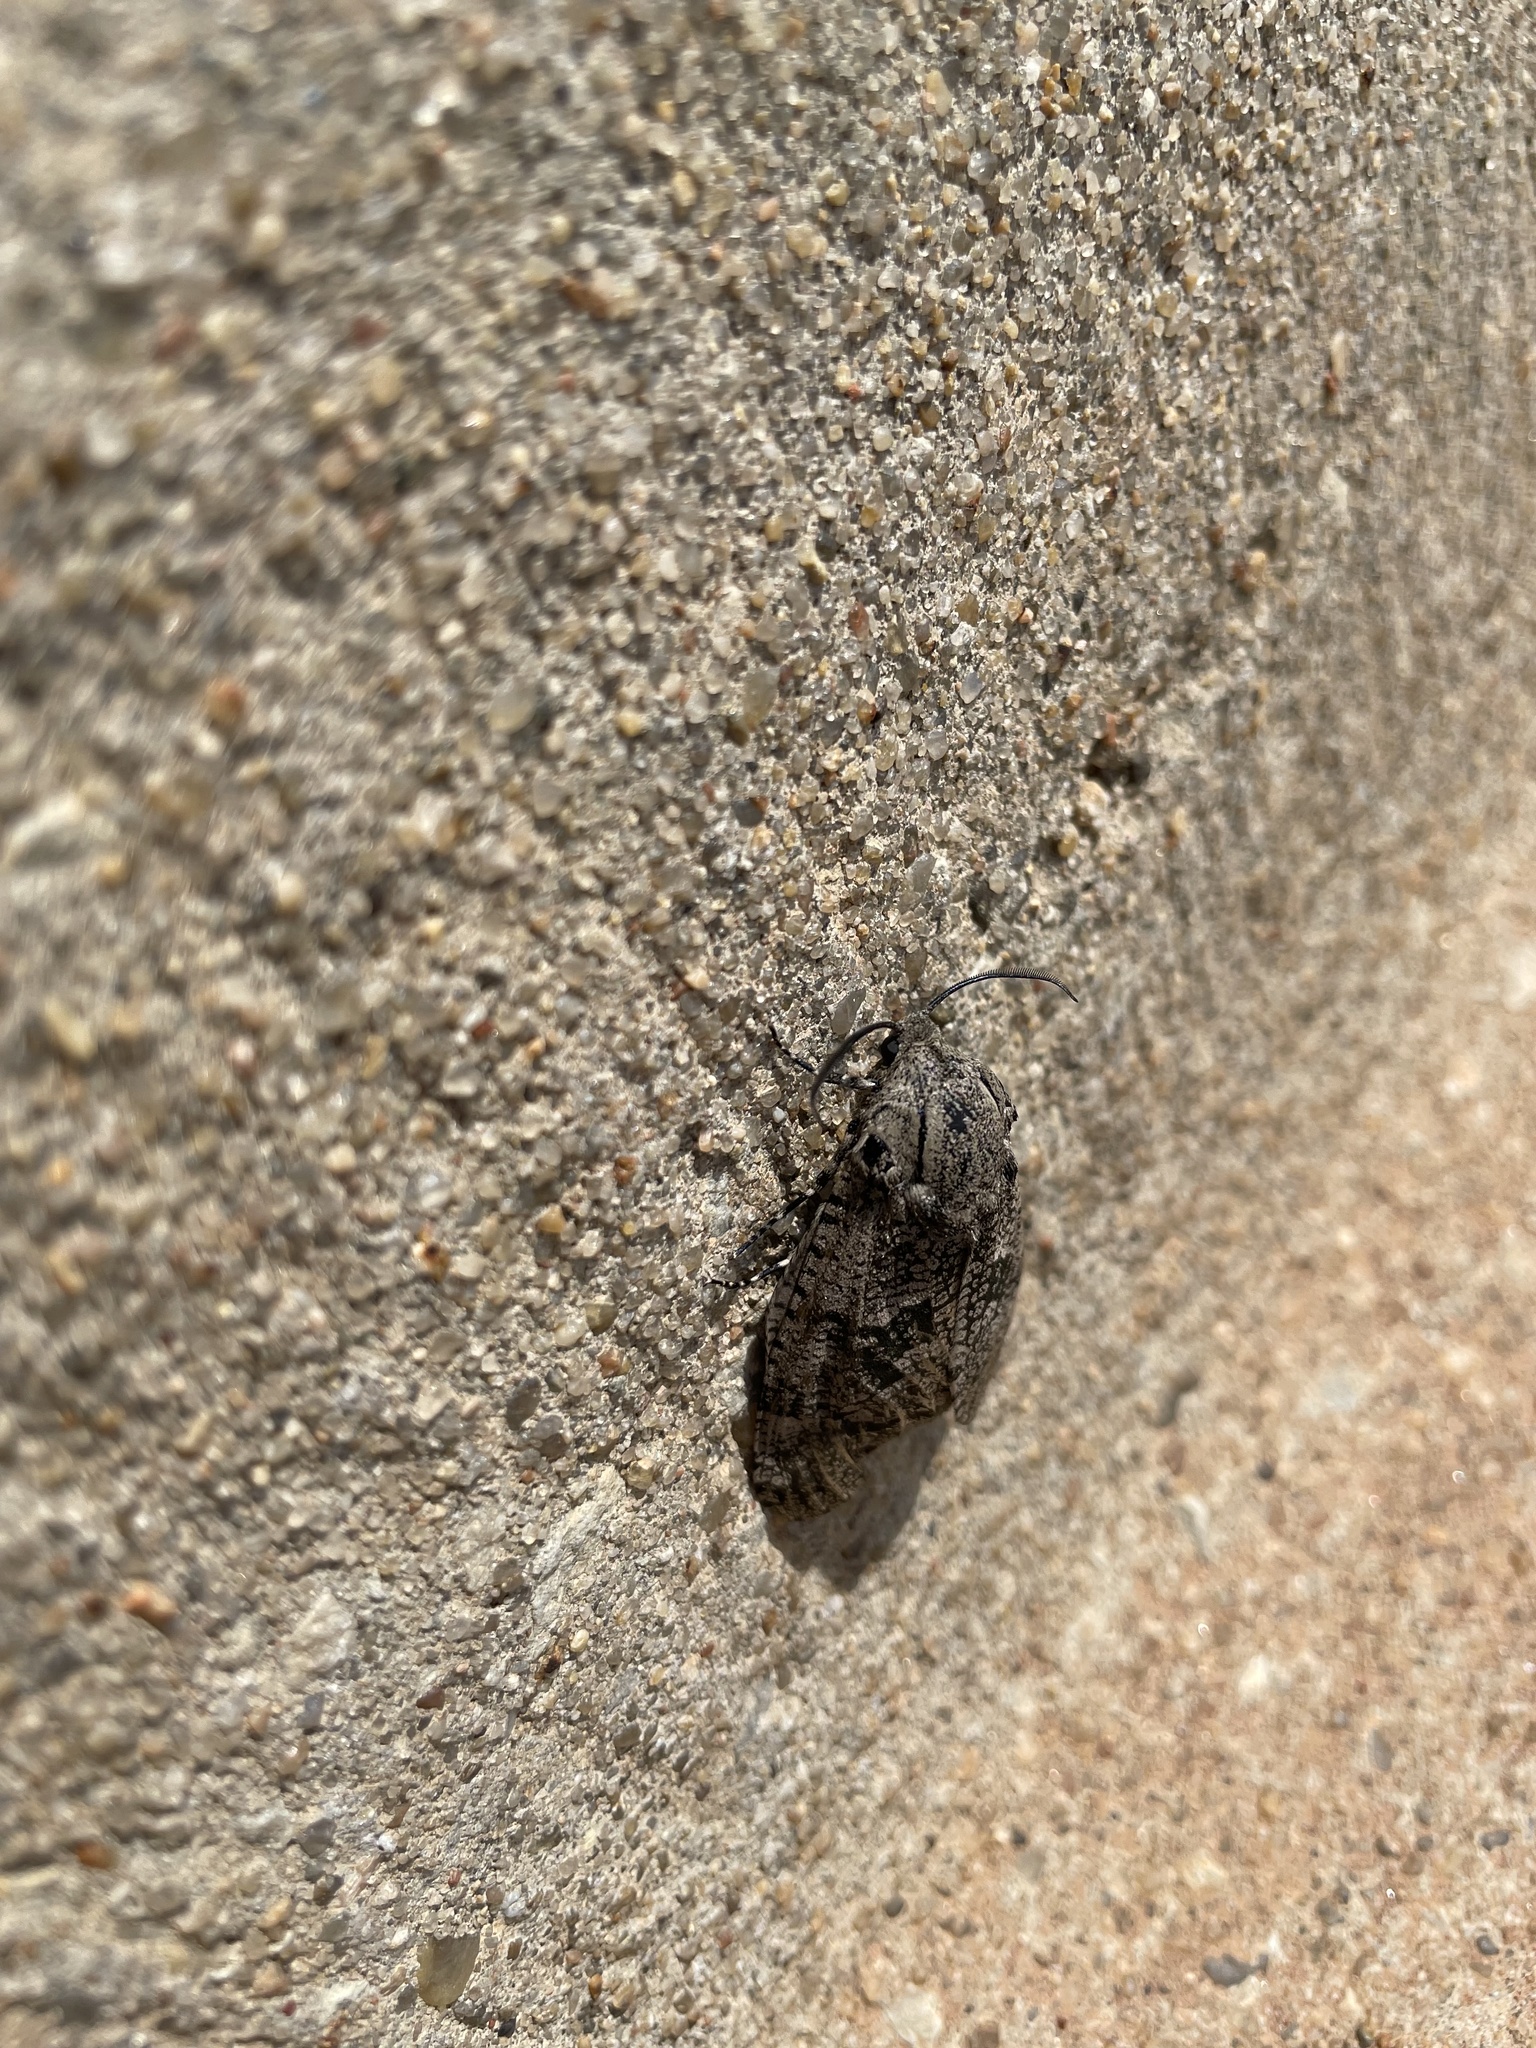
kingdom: Animalia
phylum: Arthropoda
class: Insecta
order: Lepidoptera
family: Cossidae
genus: Prionoxystus
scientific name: Prionoxystus robiniae
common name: Carpenterworm
